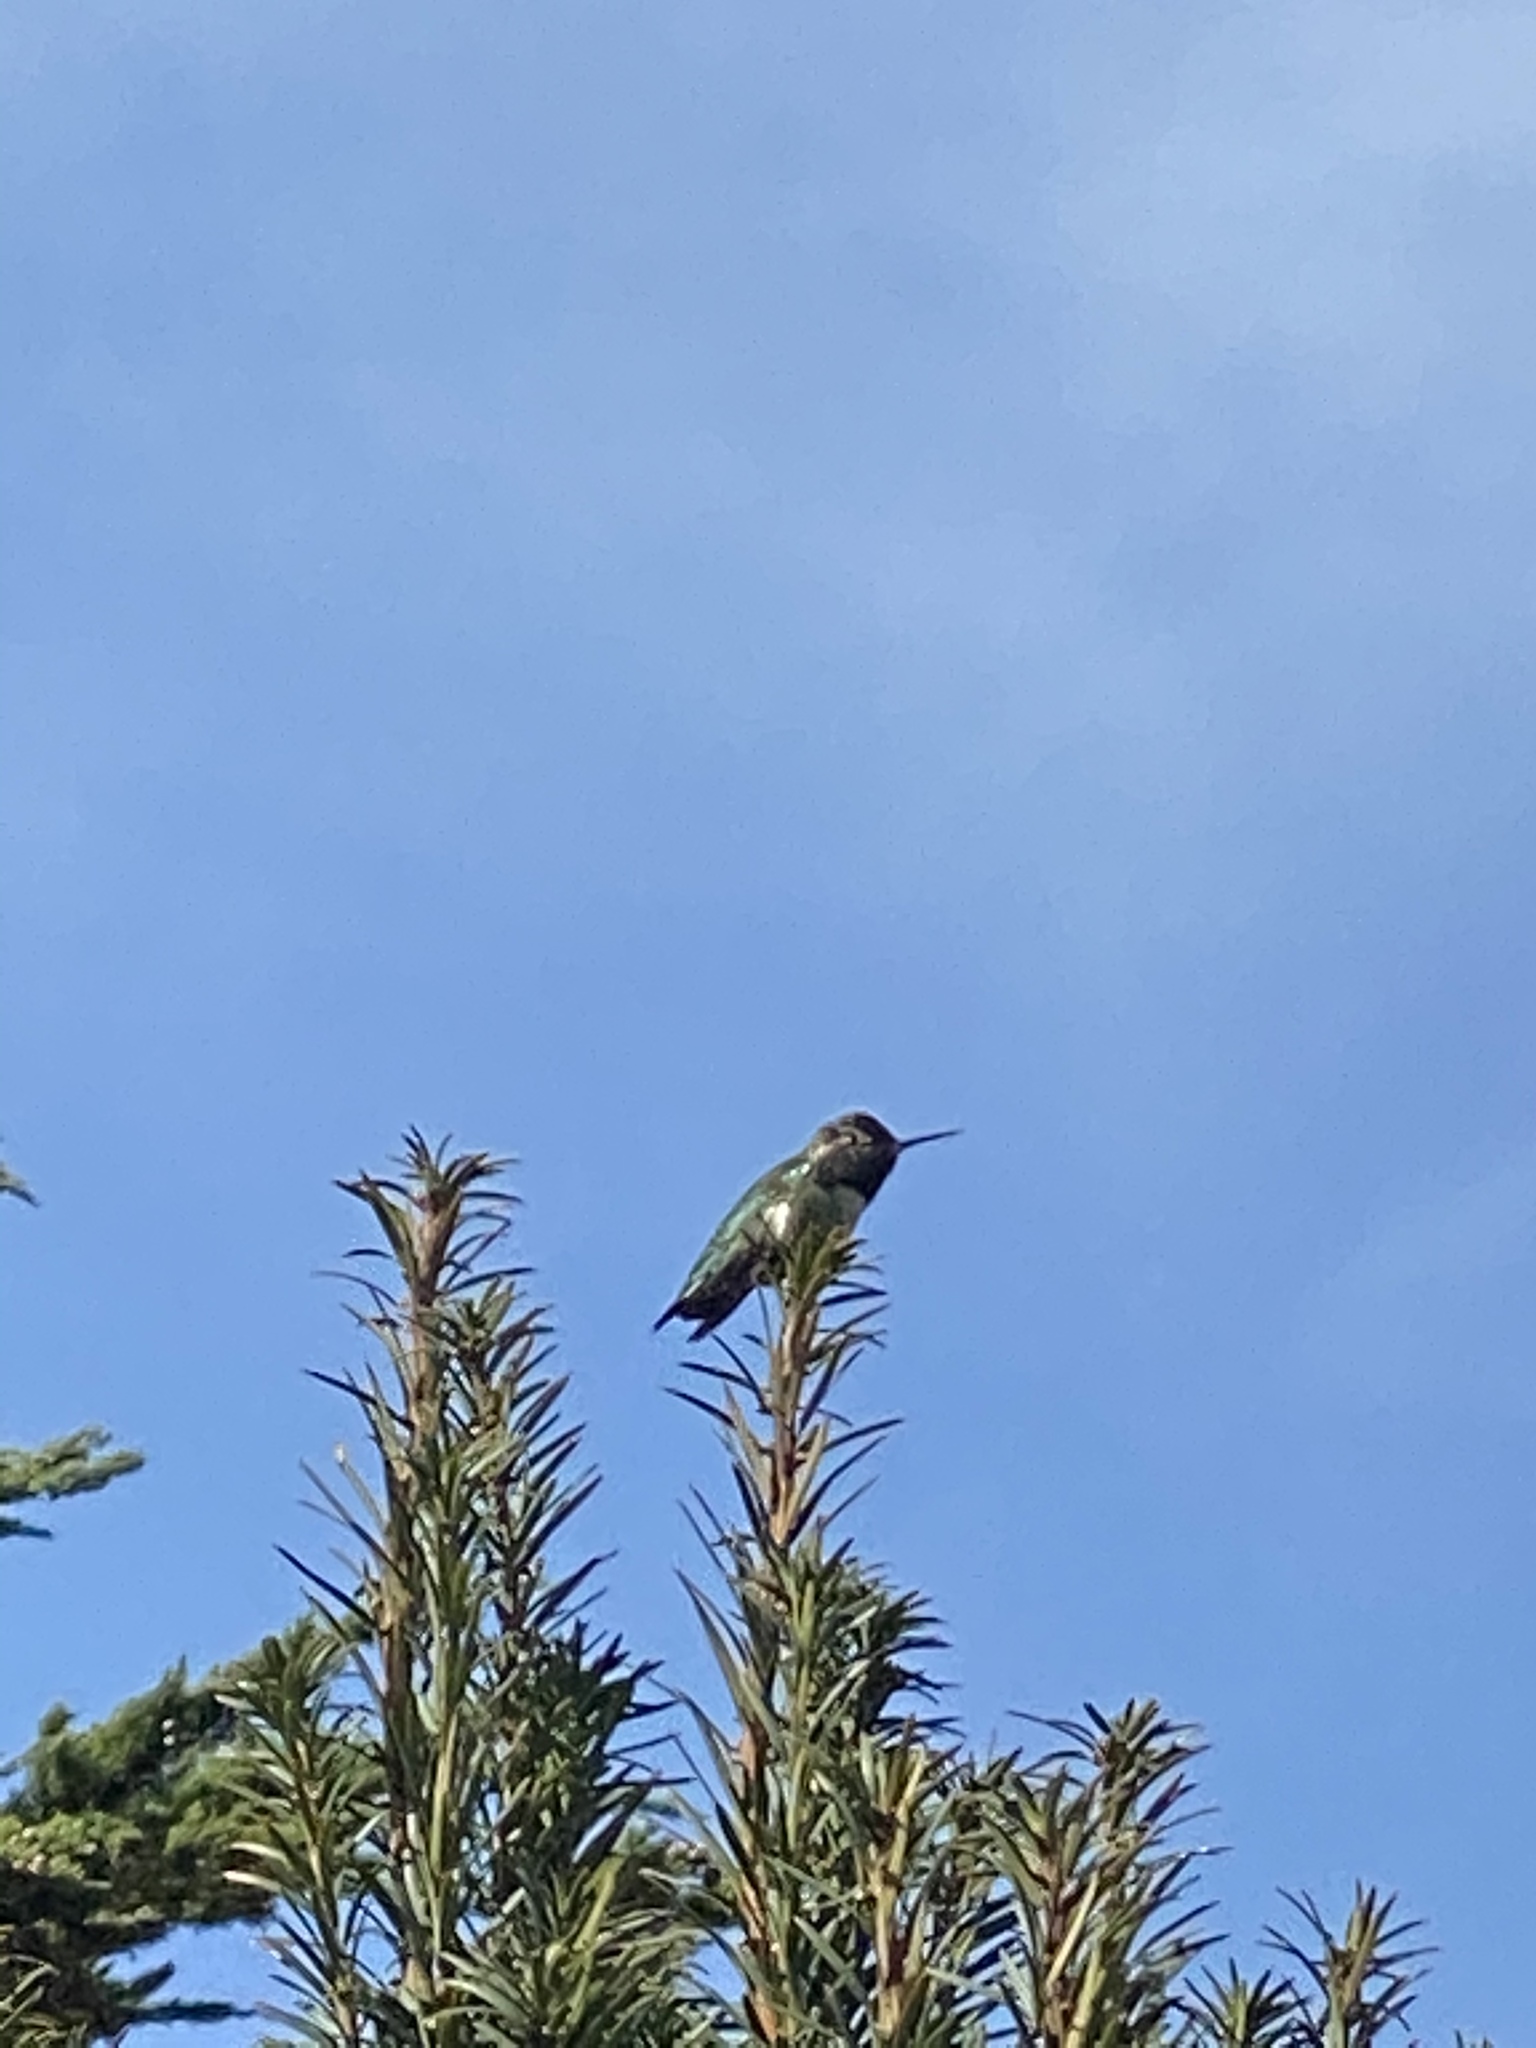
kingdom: Animalia
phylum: Chordata
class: Aves
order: Apodiformes
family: Trochilidae
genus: Calypte
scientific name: Calypte anna
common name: Anna's hummingbird
